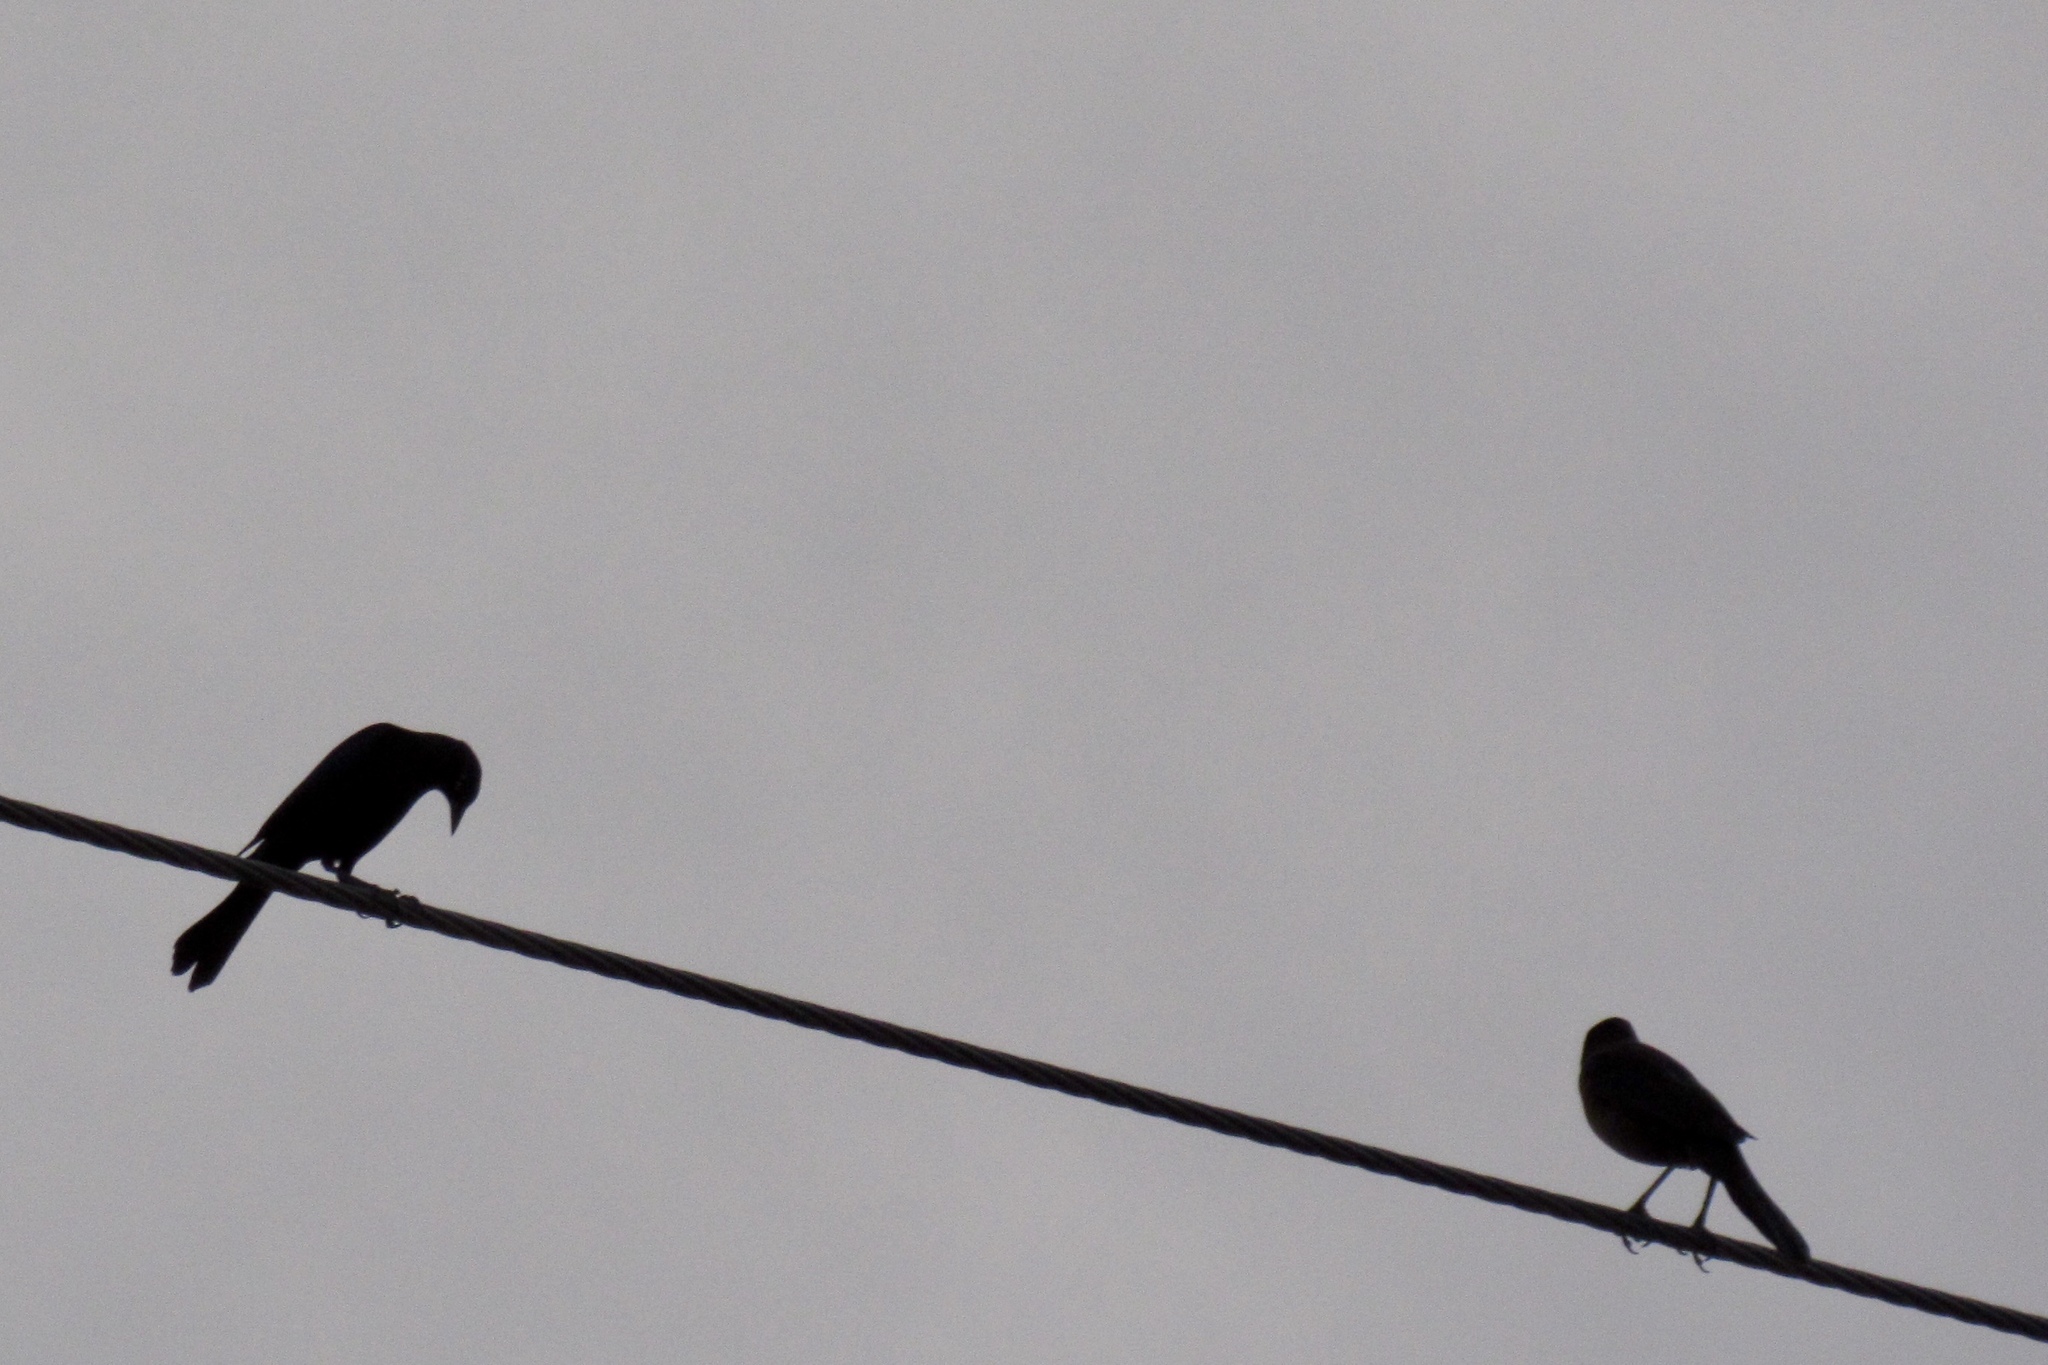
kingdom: Animalia
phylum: Chordata
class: Aves
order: Passeriformes
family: Icteridae
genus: Quiscalus
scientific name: Quiscalus mexicanus
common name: Great-tailed grackle
